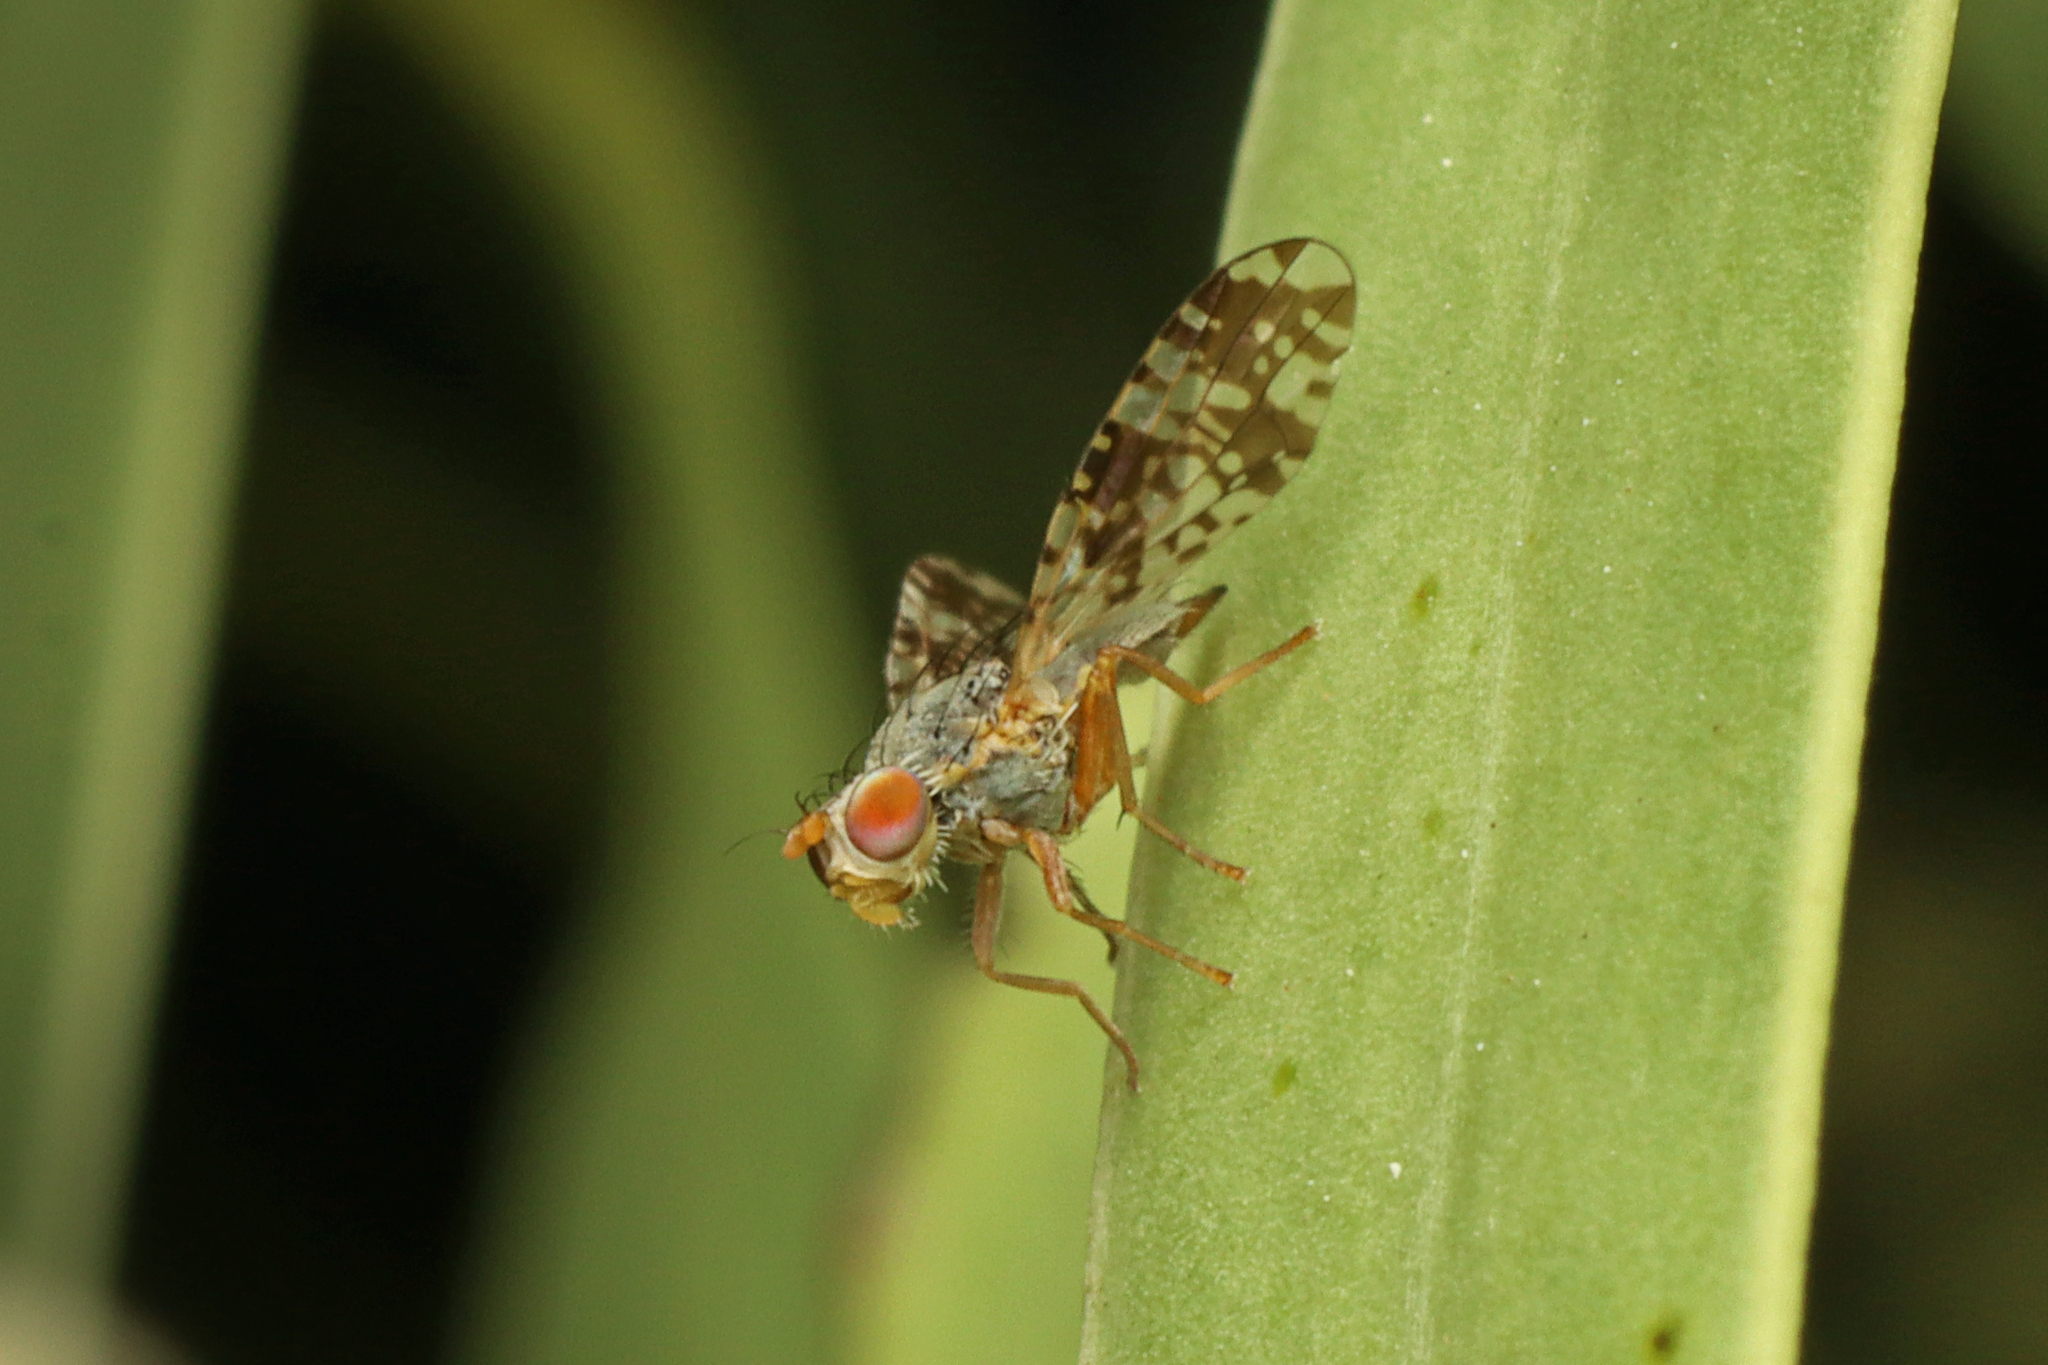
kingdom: Animalia
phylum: Arthropoda
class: Insecta
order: Diptera
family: Tephritidae
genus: Austrotephritis
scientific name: Austrotephritis
